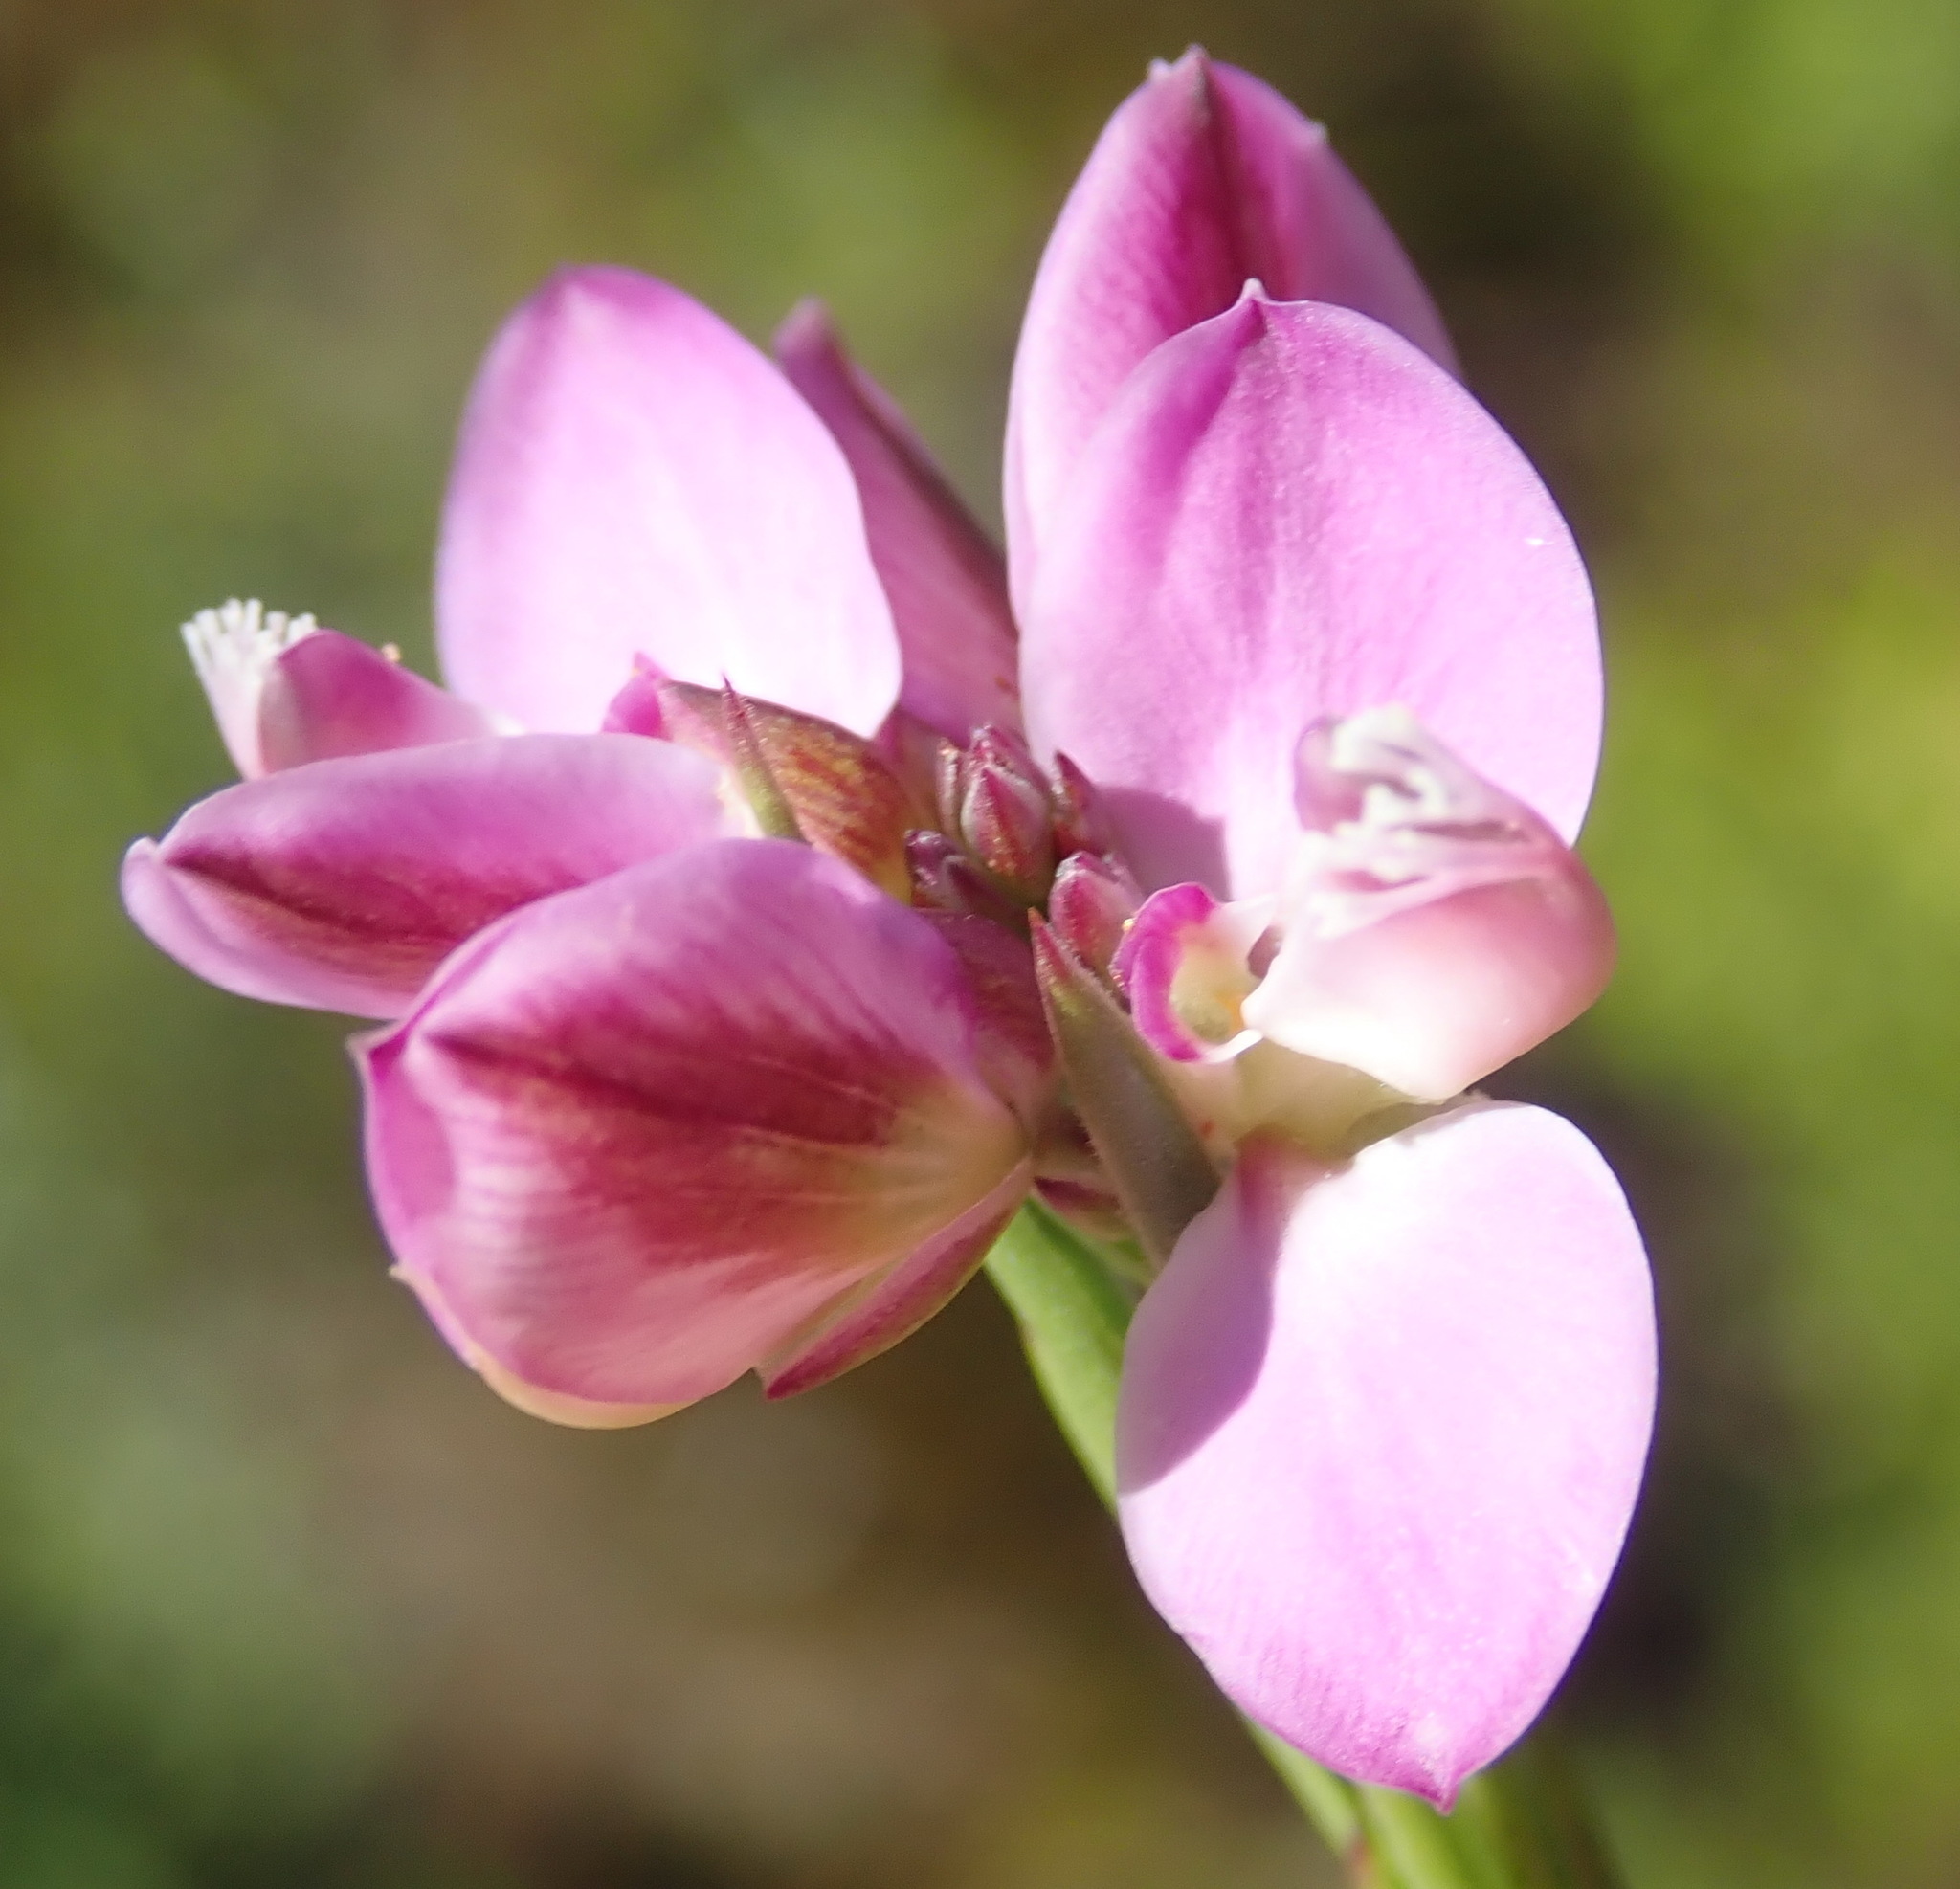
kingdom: Plantae
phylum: Tracheophyta
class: Magnoliopsida
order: Fabales
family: Polygalaceae
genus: Polygala
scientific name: Polygala umbellata
